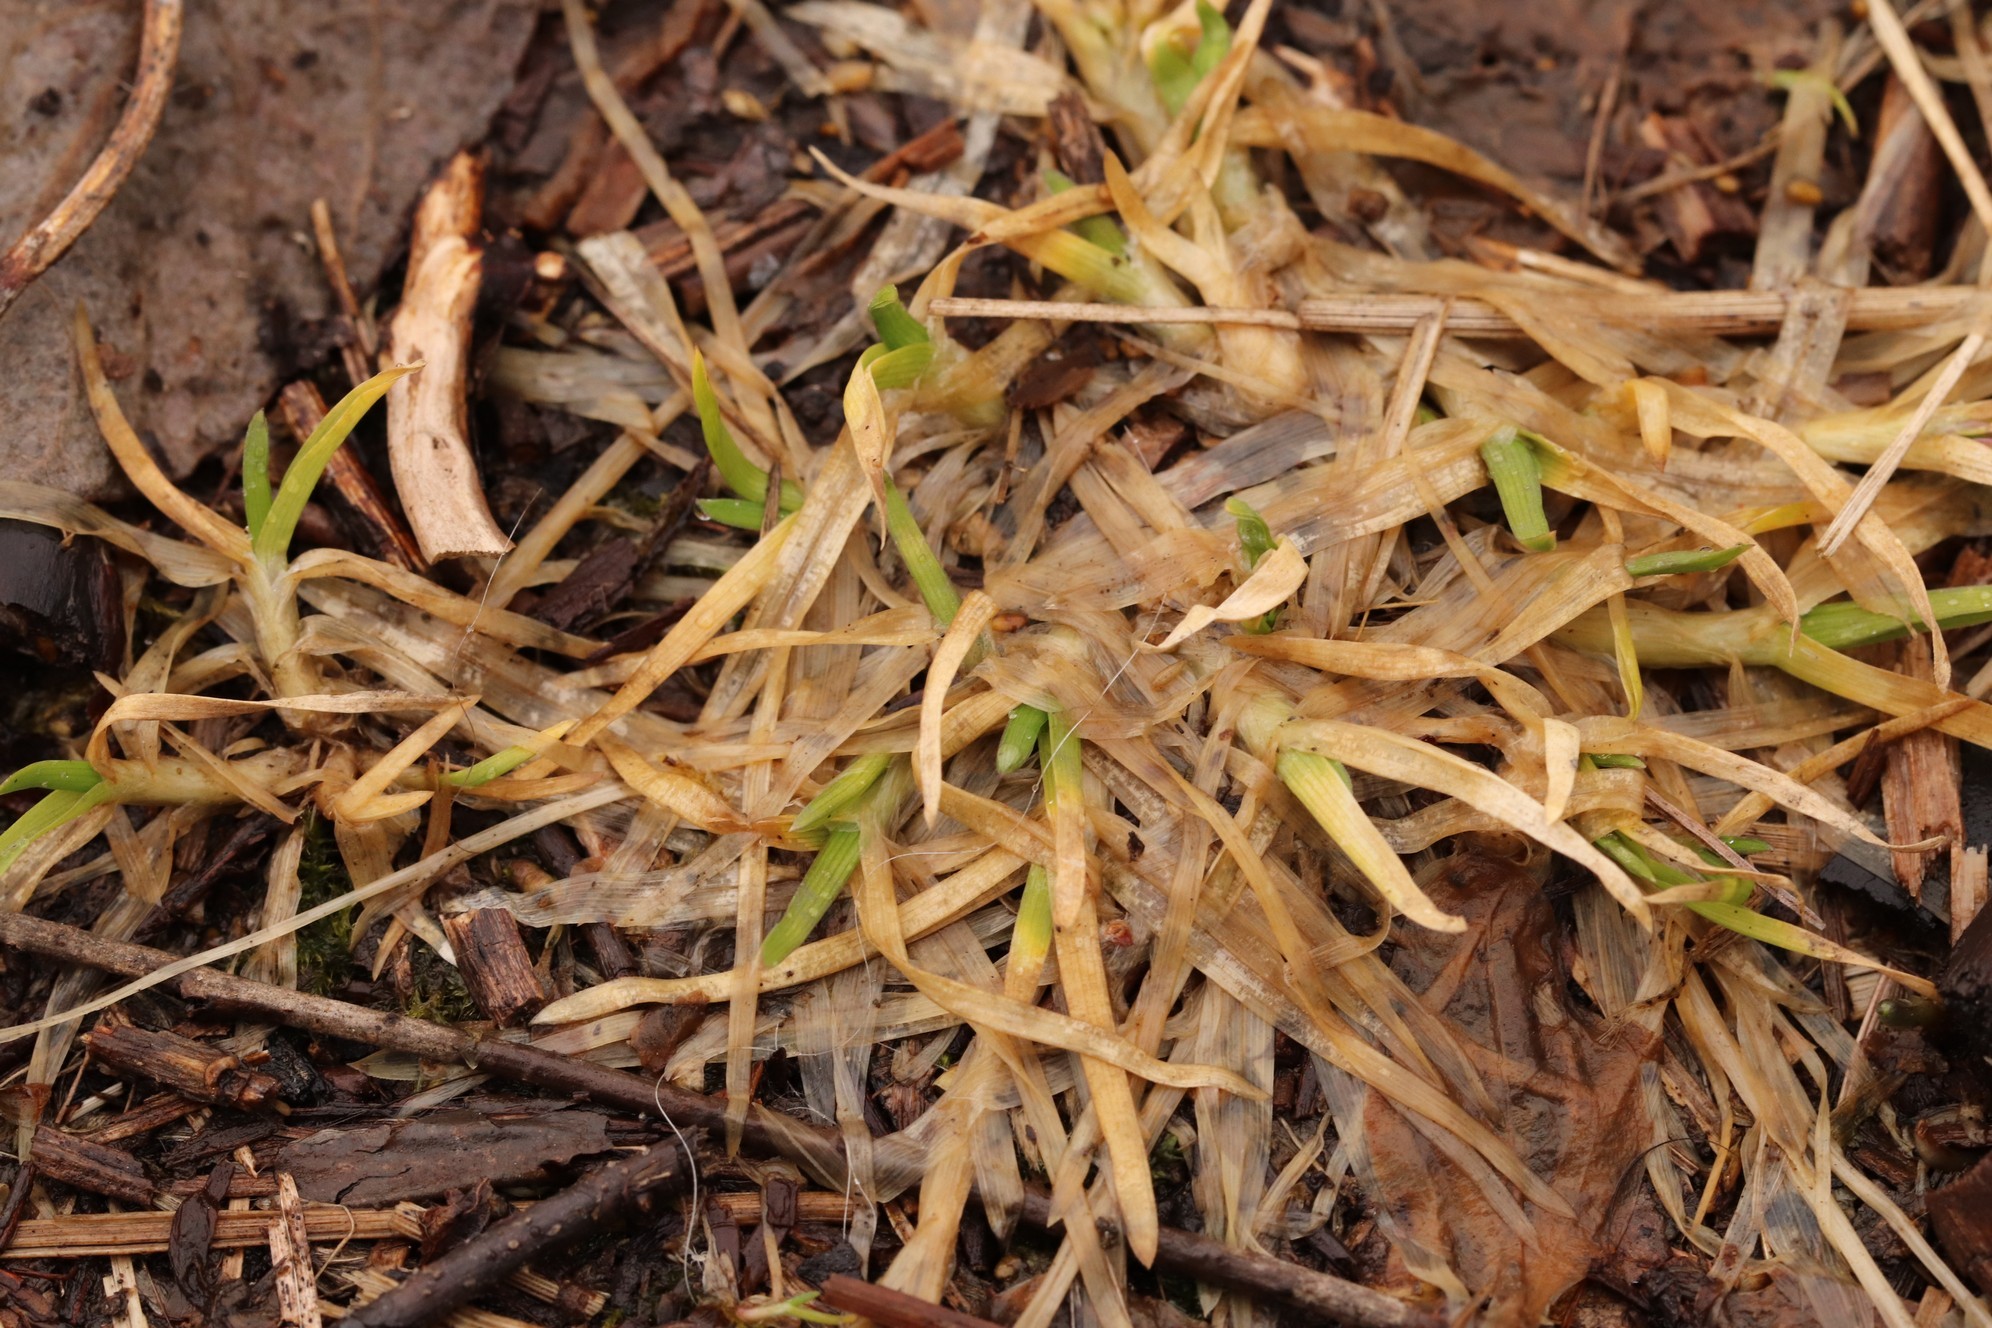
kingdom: Plantae
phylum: Tracheophyta
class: Liliopsida
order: Poales
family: Poaceae
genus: Poa
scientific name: Poa annua
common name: Annual bluegrass
